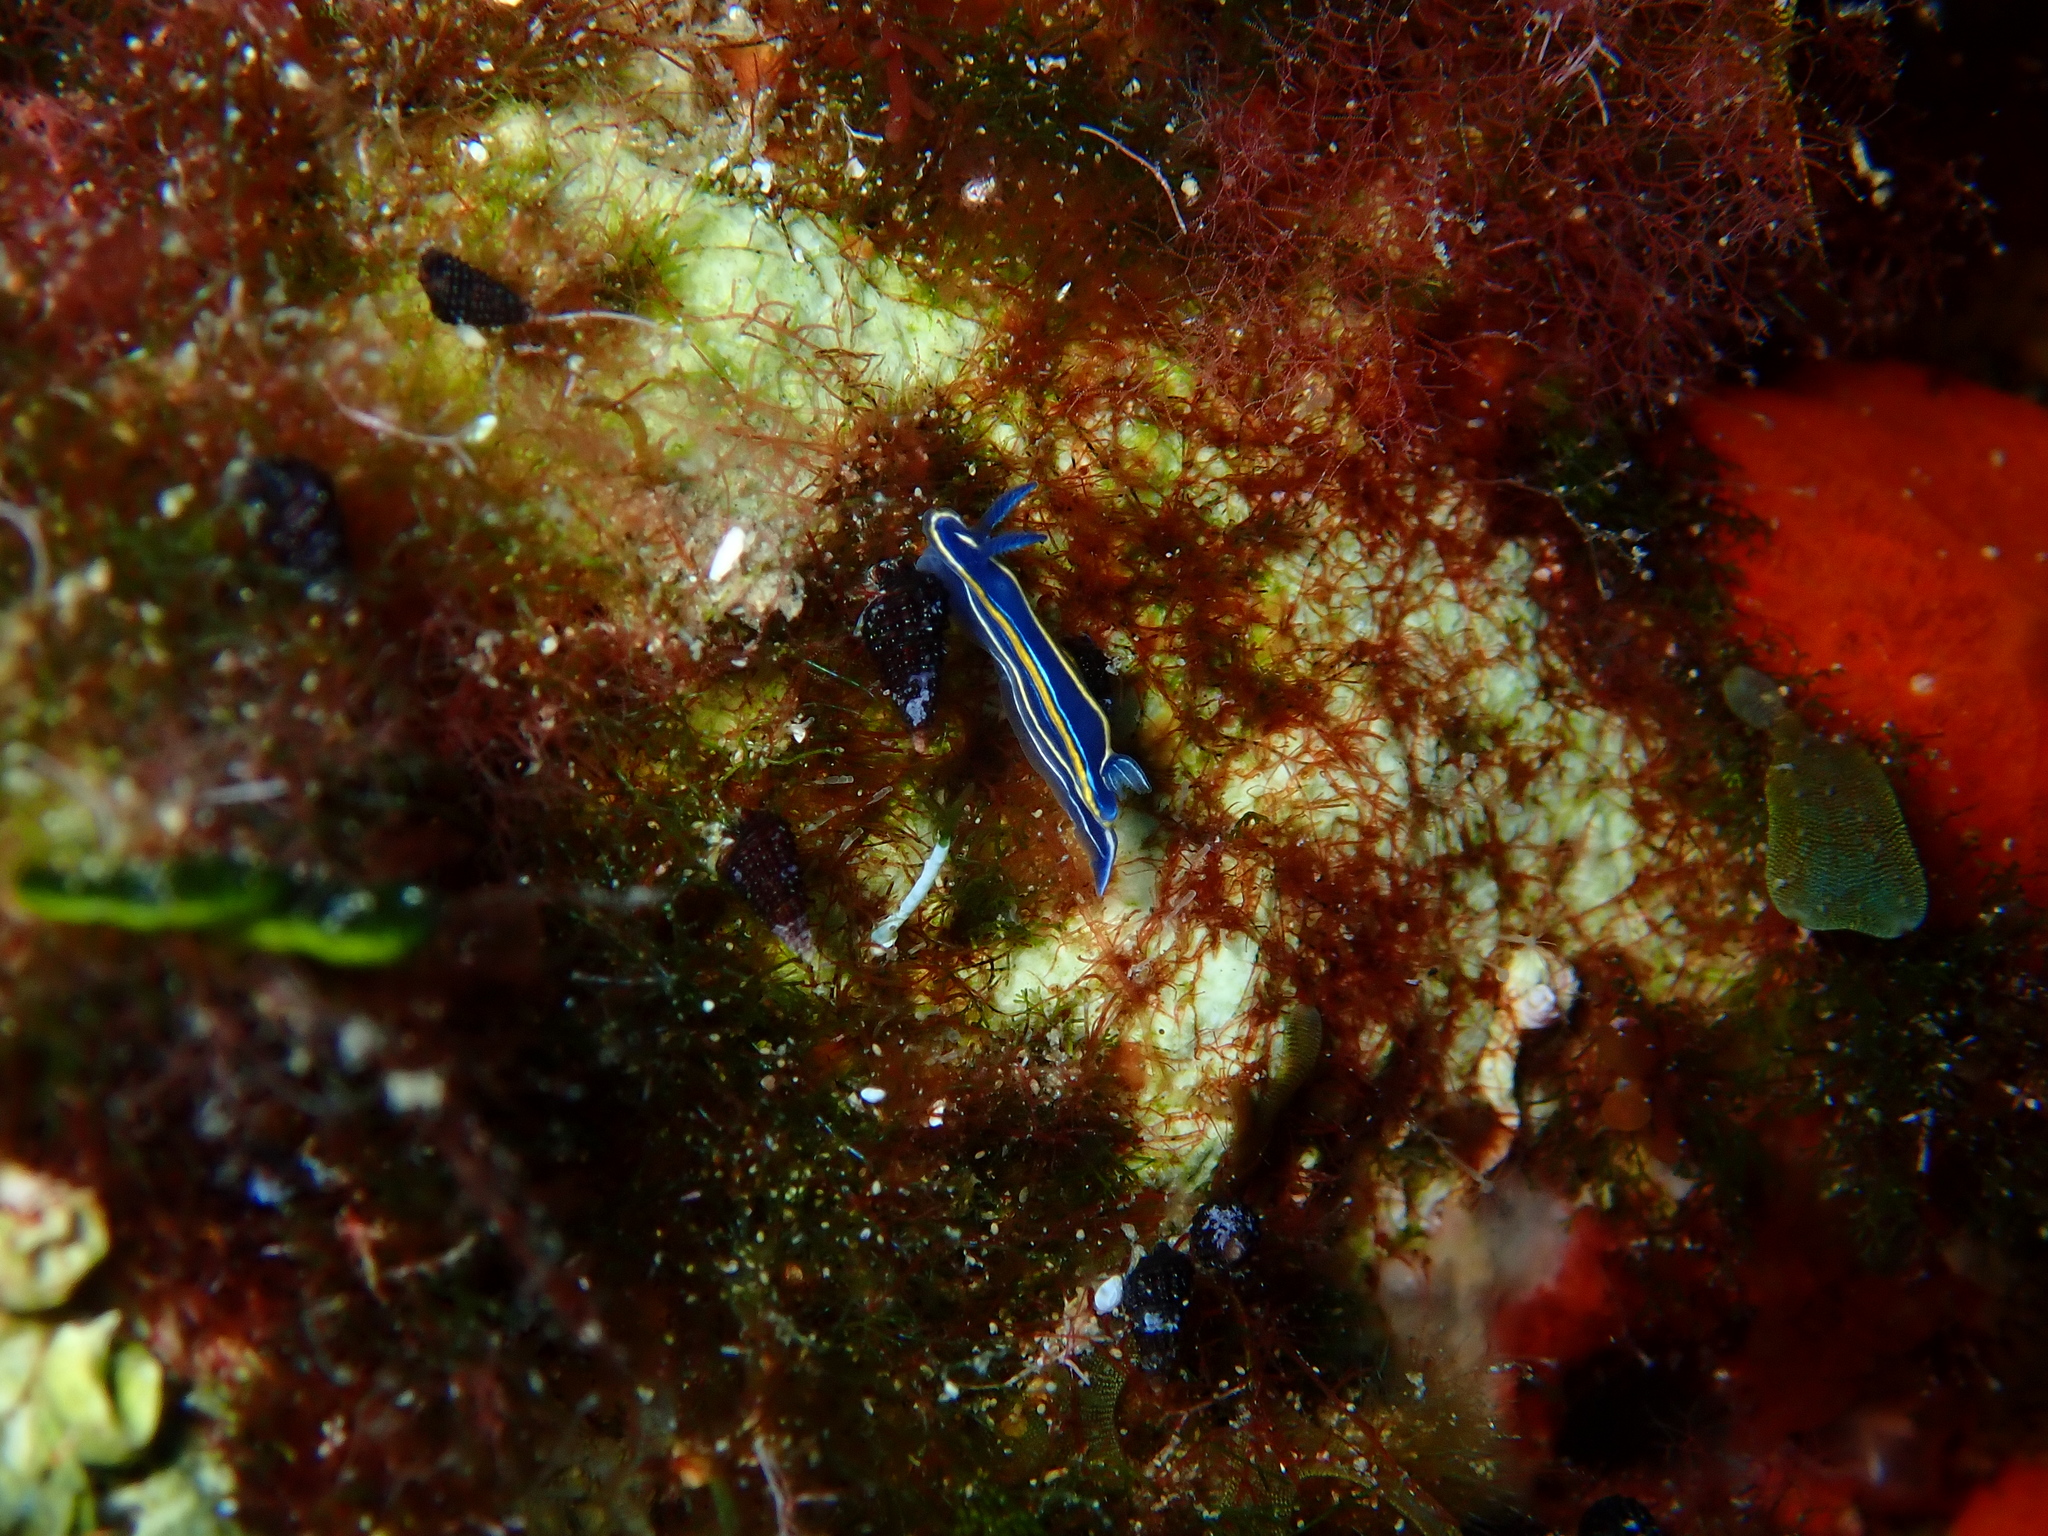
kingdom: Animalia
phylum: Mollusca
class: Gastropoda
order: Nudibranchia
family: Chromodorididae
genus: Felimare
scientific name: Felimare gasconi
